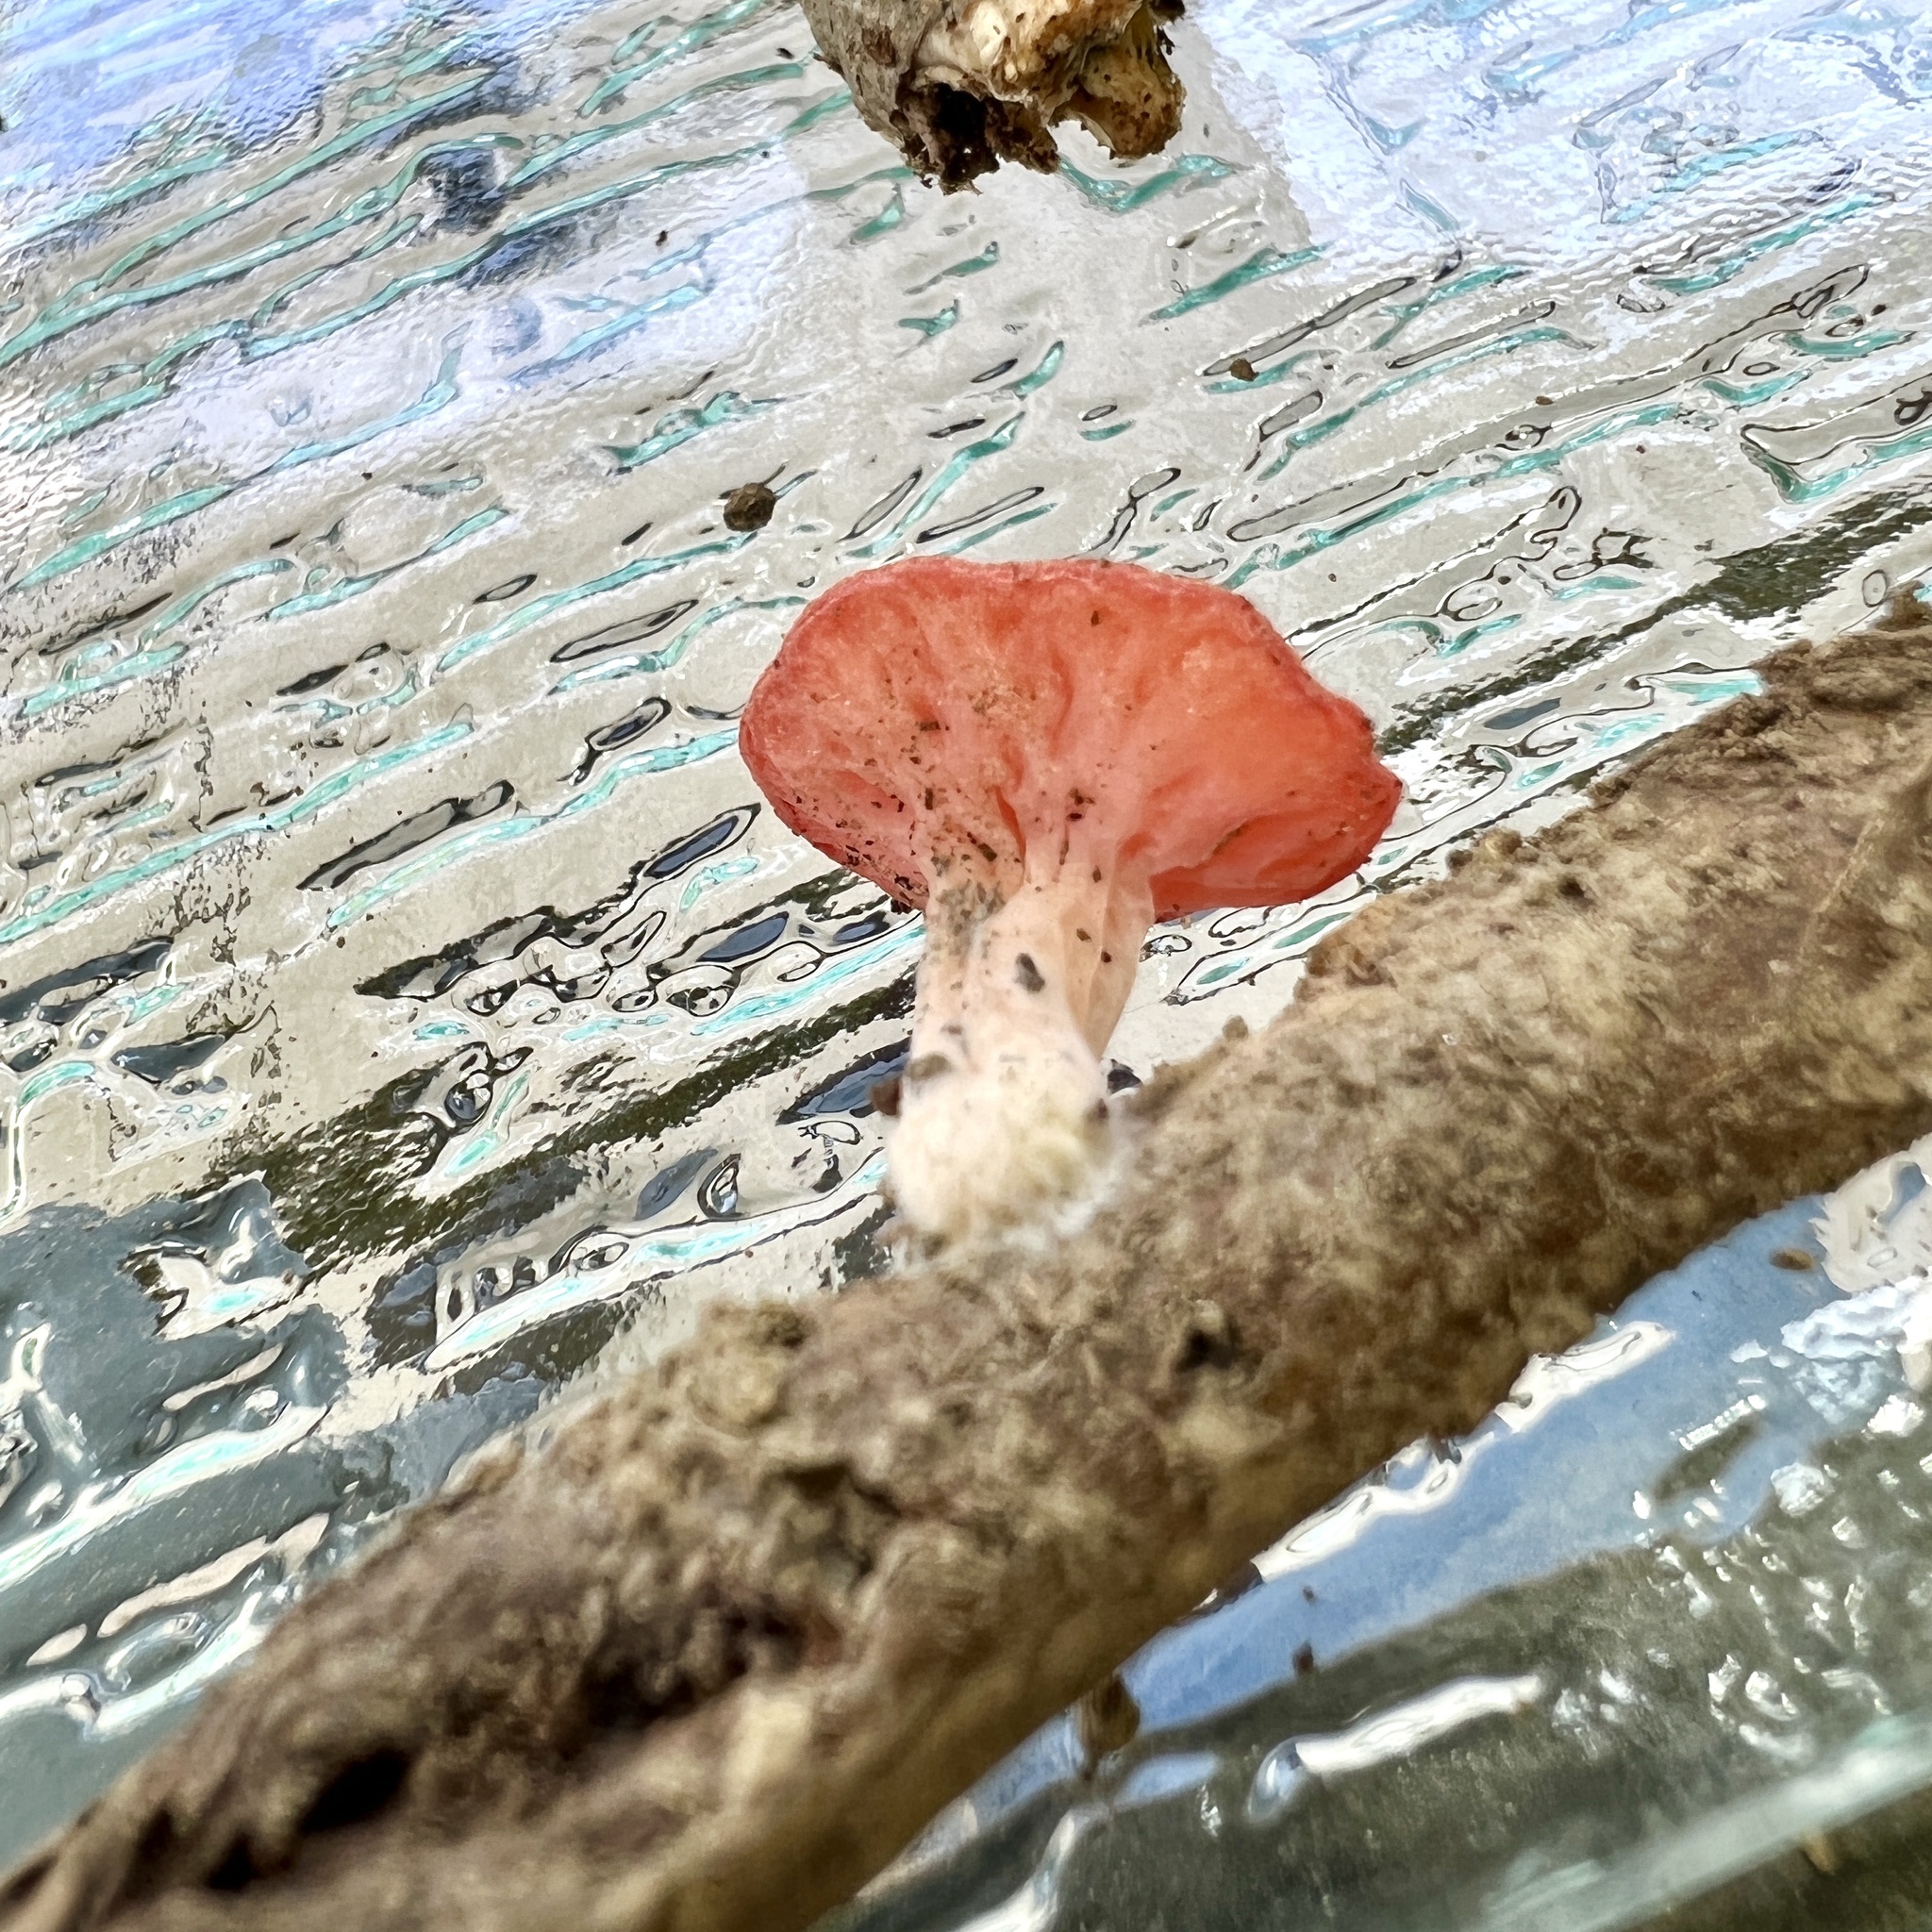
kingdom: Fungi
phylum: Ascomycota
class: Pezizomycetes
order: Pezizales
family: Sarcoscyphaceae
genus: Sarcoscypha
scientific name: Sarcoscypha occidentalis
